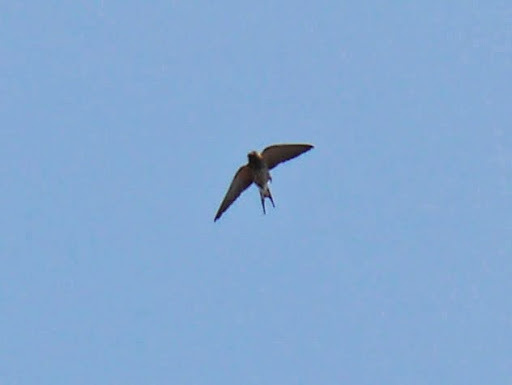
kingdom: Animalia
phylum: Chordata
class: Aves
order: Passeriformes
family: Hirundinidae
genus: Cecropis
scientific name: Cecropis abyssinica
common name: Lesser striped-swallow
